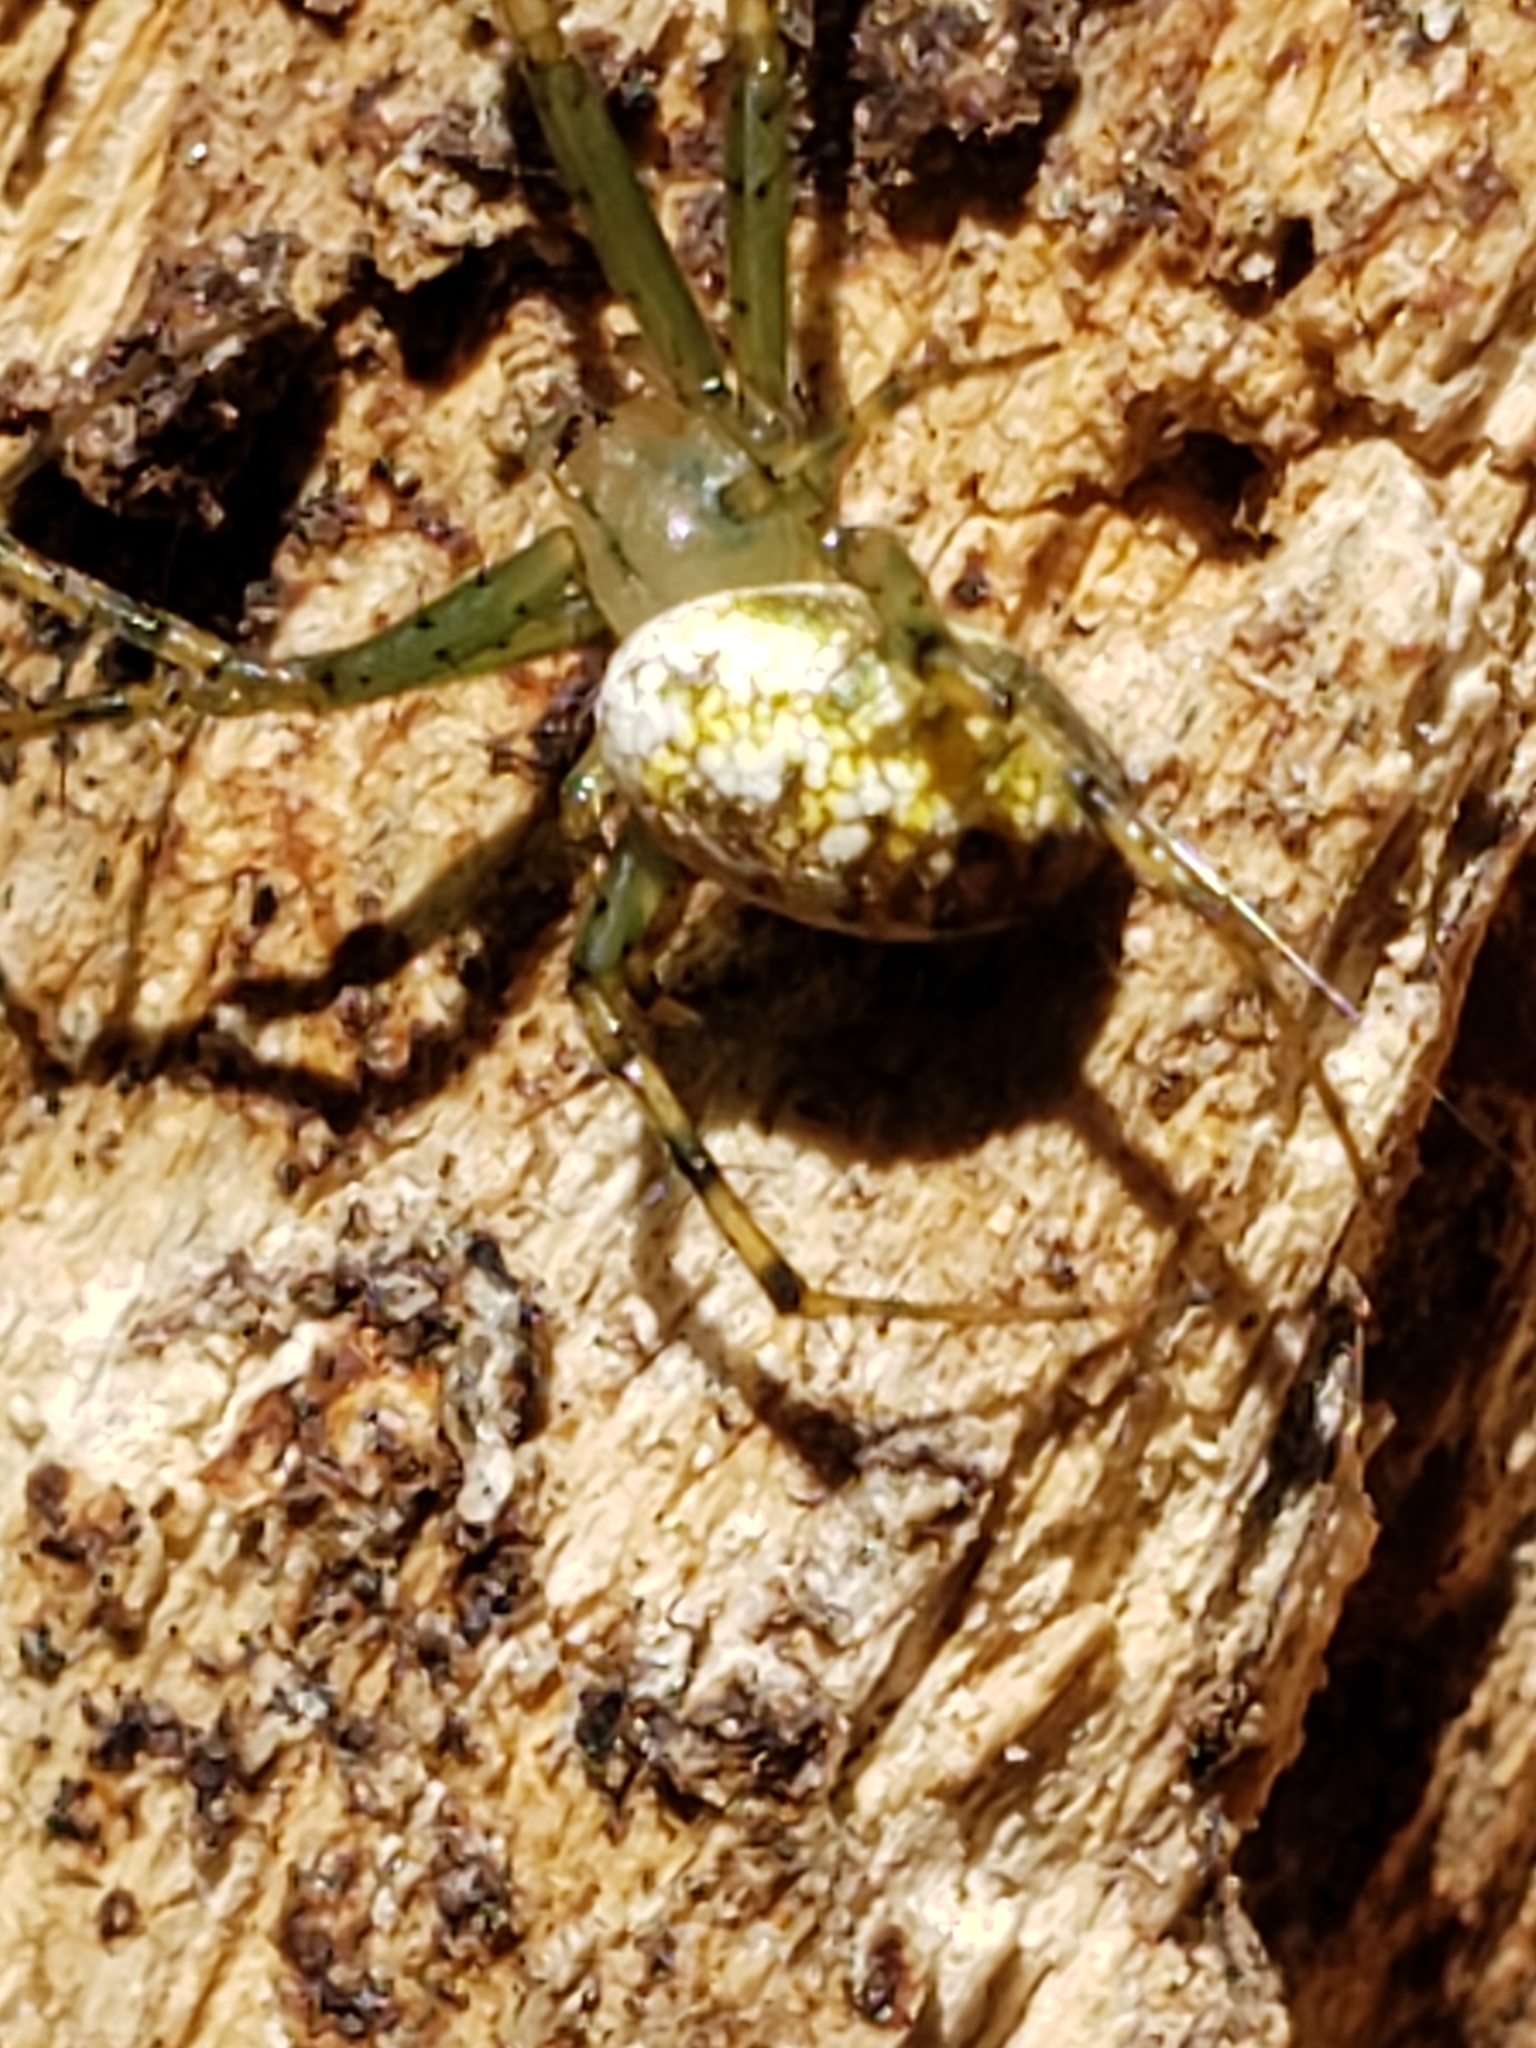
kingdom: Animalia
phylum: Arthropoda
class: Arachnida
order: Araneae
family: Araneidae
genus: Mangora
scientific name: Mangora spiculata
